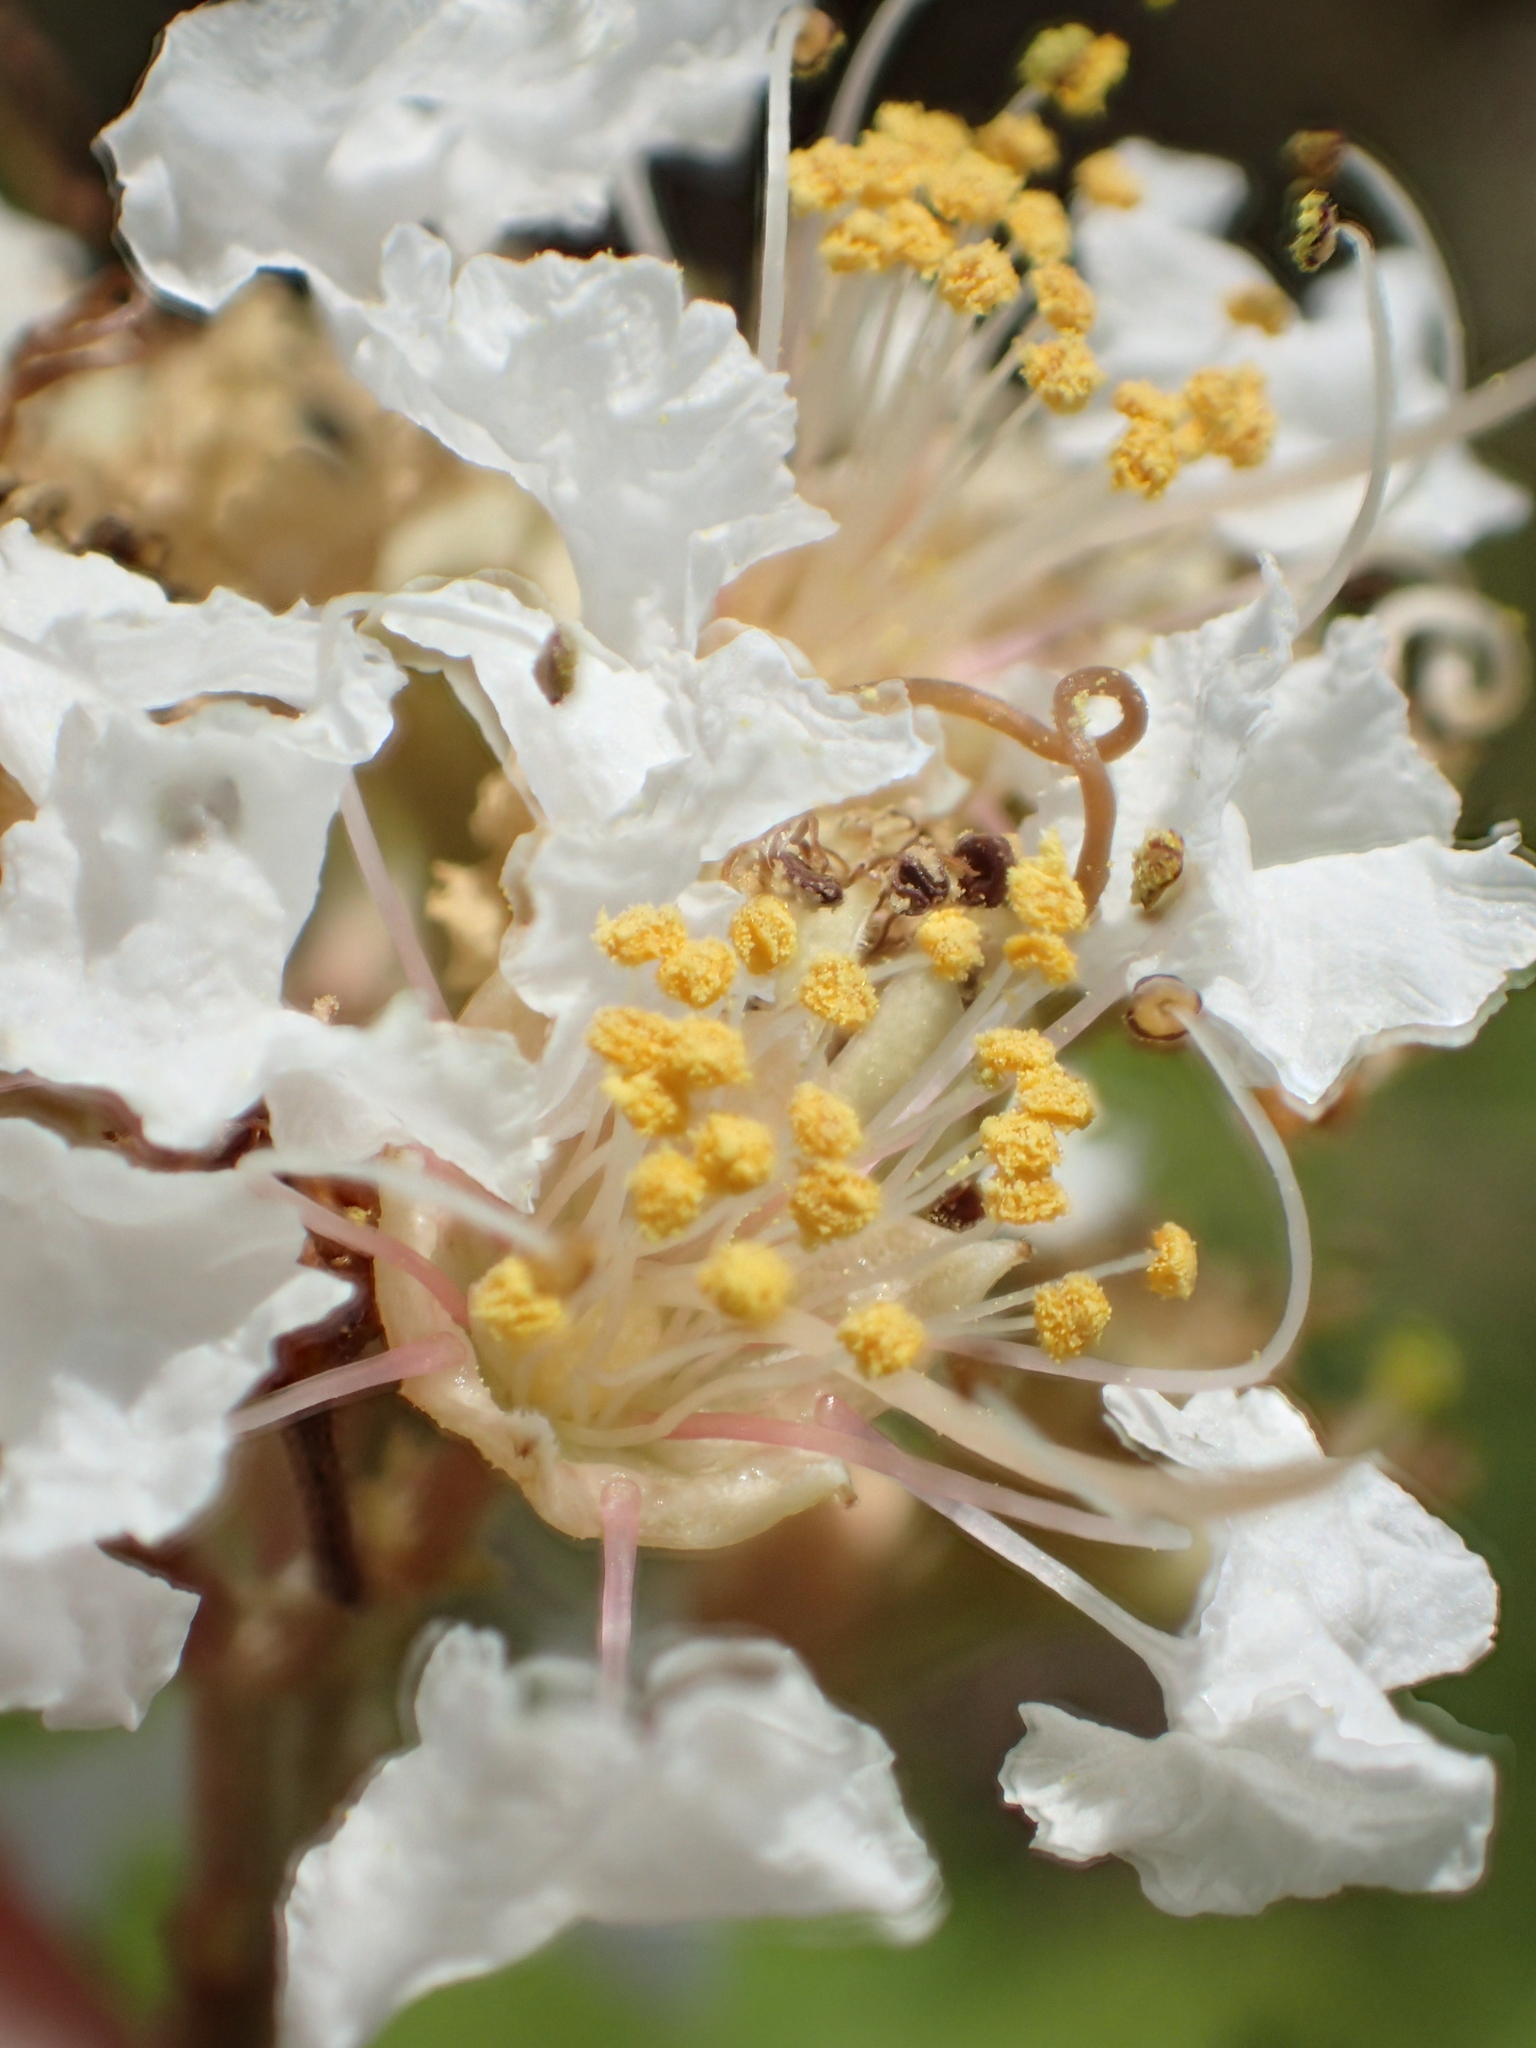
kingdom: Plantae
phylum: Tracheophyta
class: Magnoliopsida
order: Myrtales
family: Lythraceae
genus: Lagerstroemia
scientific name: Lagerstroemia subcostata
